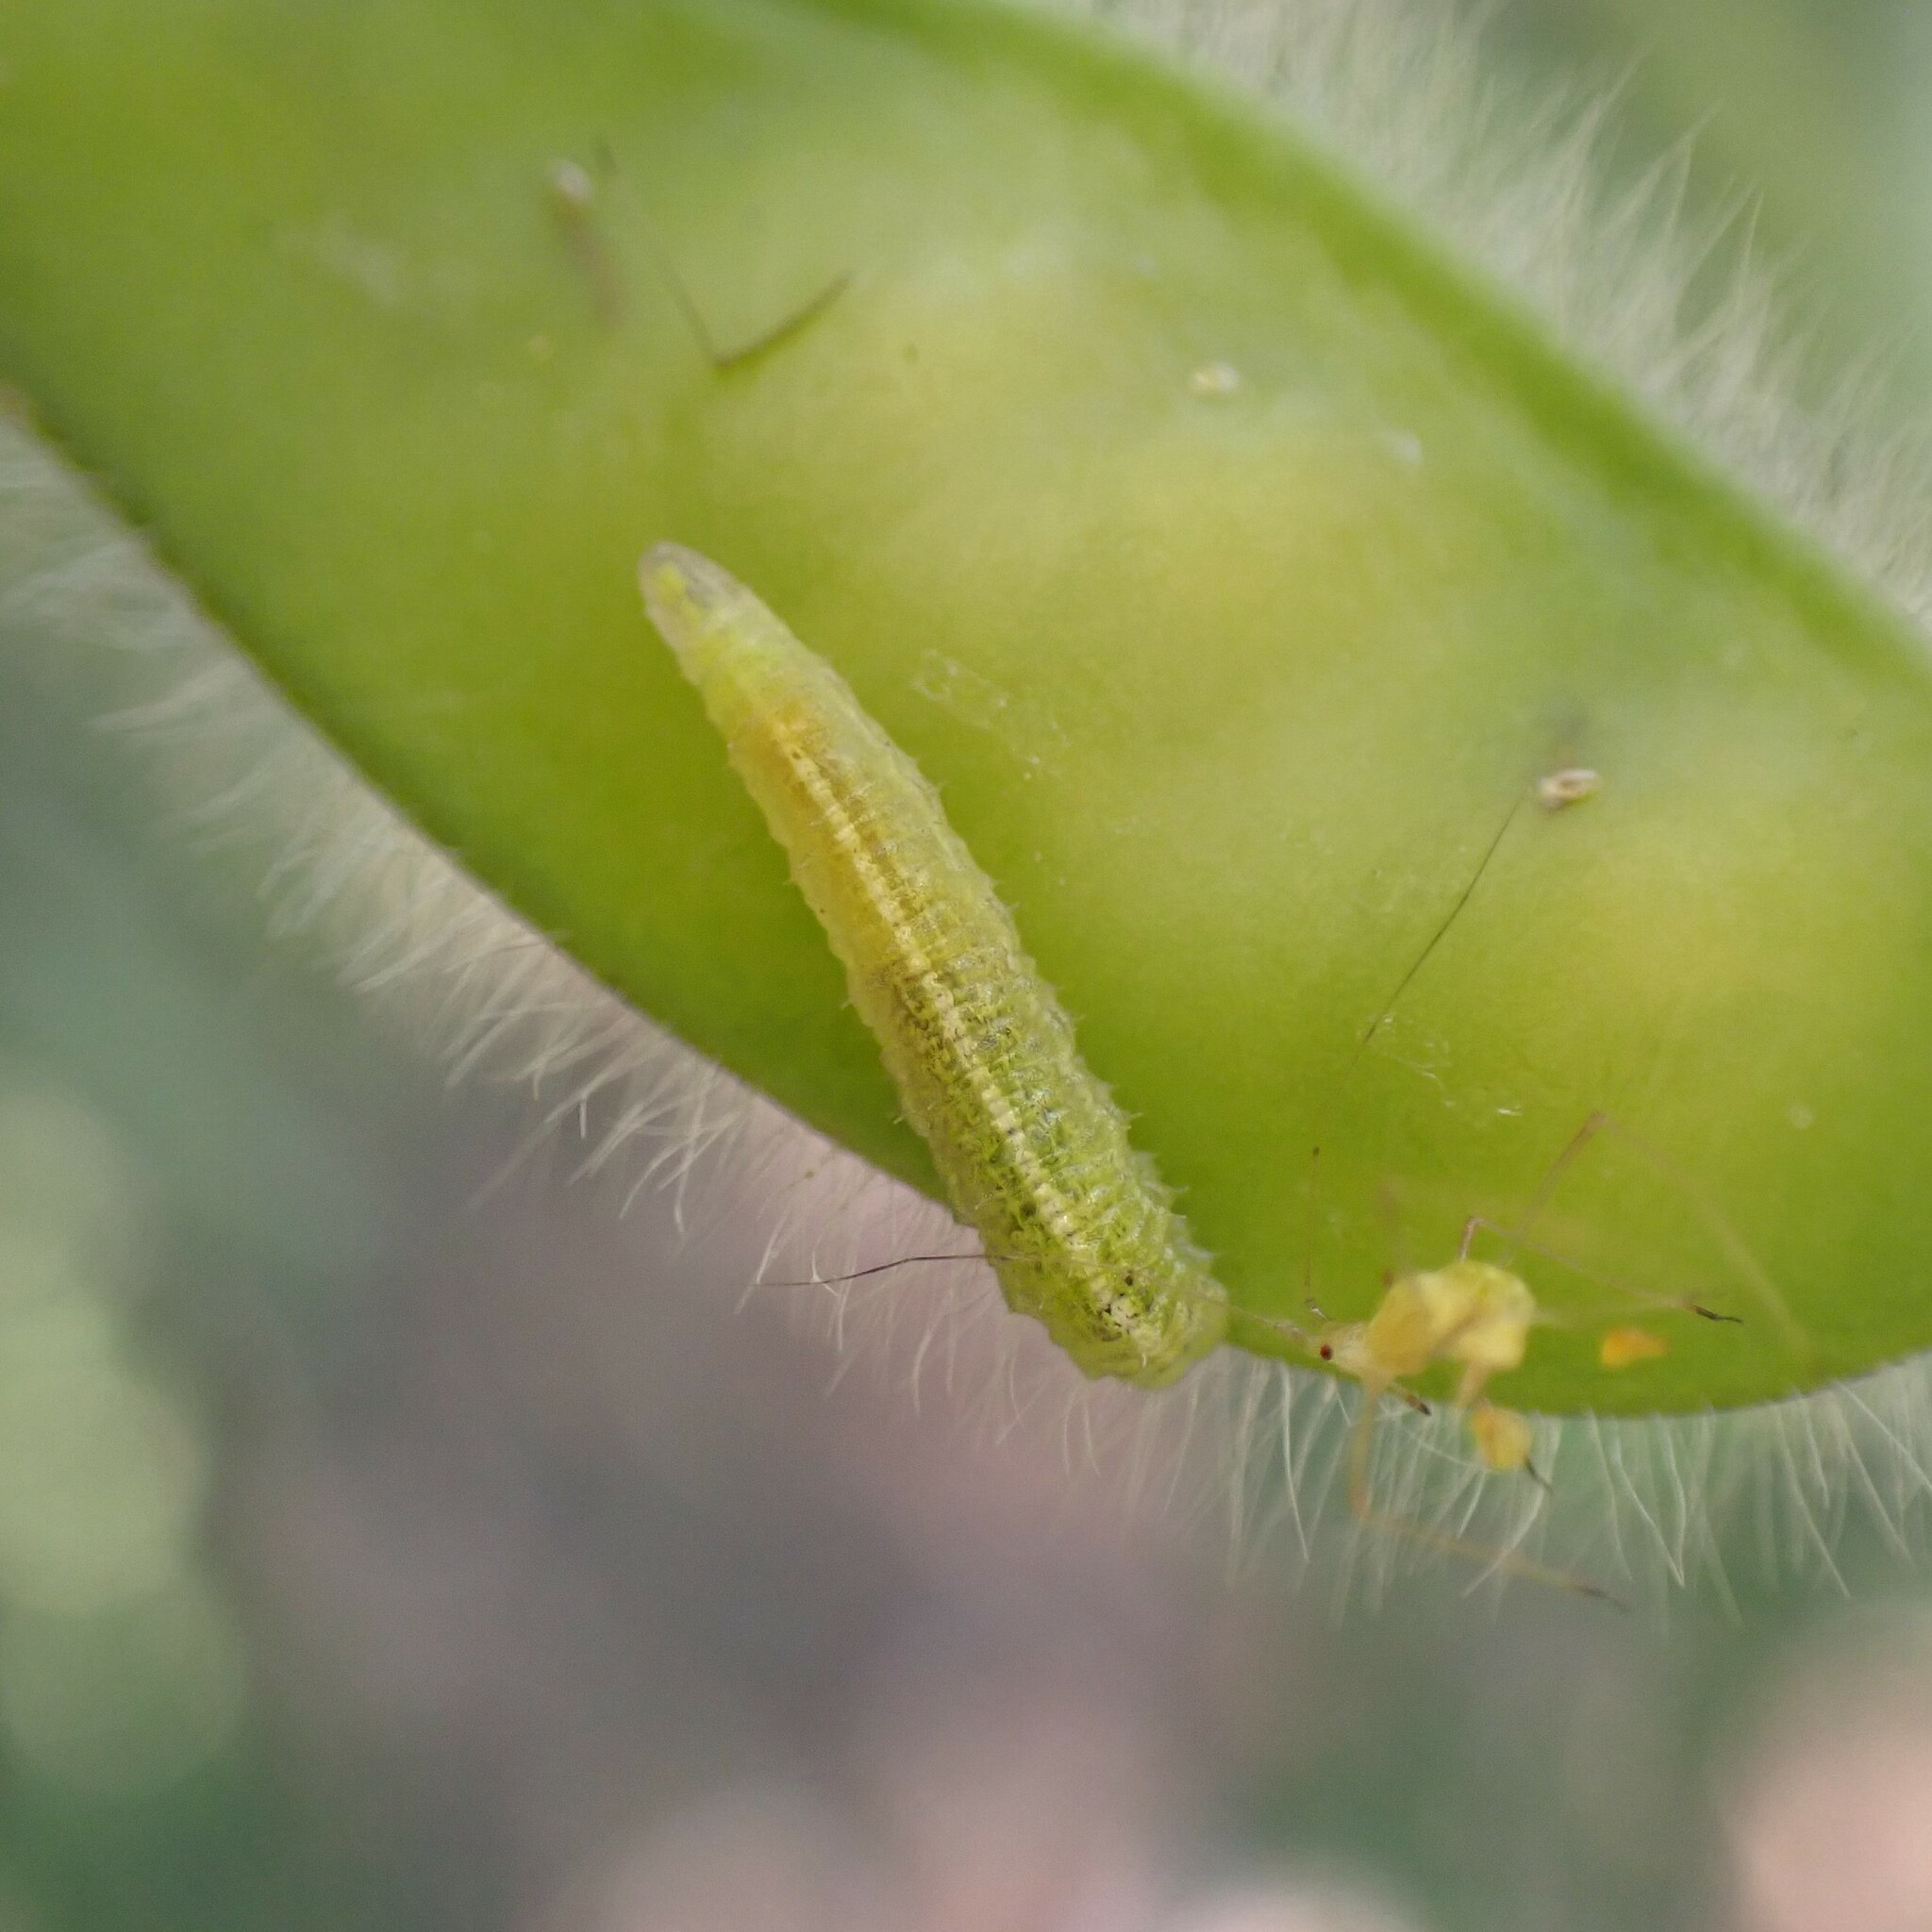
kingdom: Animalia
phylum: Arthropoda
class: Insecta
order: Diptera
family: Syrphidae
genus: Scaeva
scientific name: Scaeva affinis
